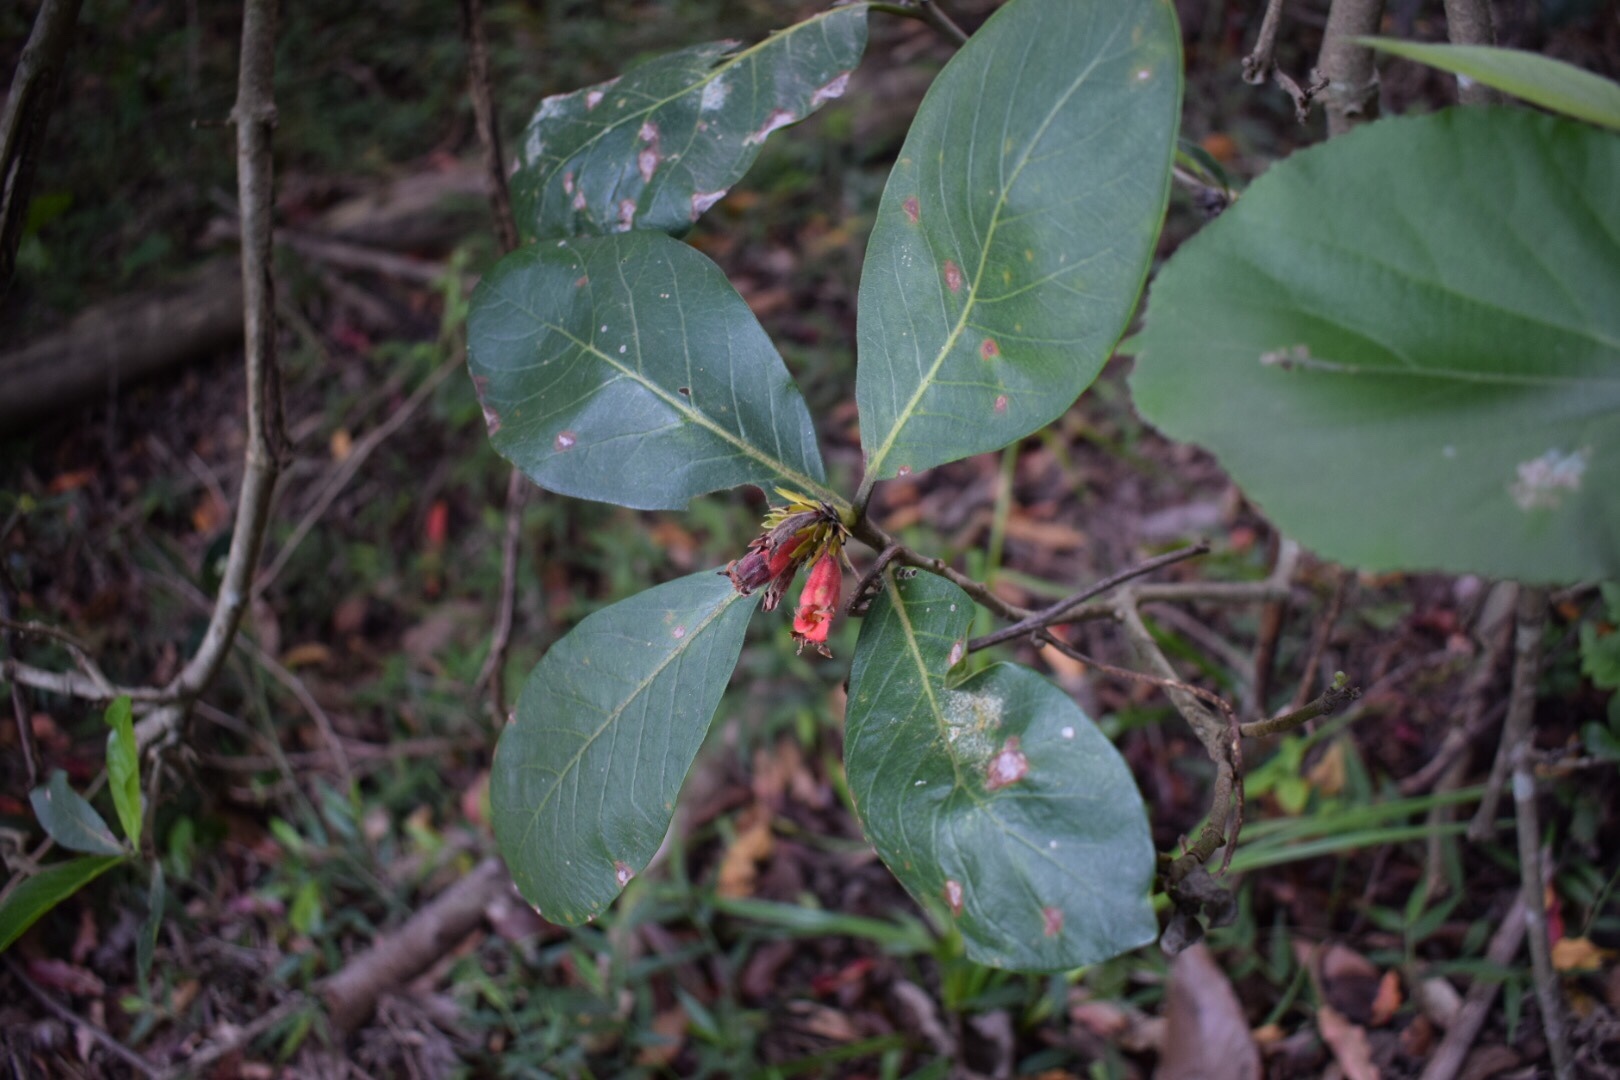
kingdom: Plantae
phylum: Tracheophyta
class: Magnoliopsida
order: Gentianales
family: Rubiaceae
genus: Burchellia
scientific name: Burchellia bubalina
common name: Wild pomegranate
